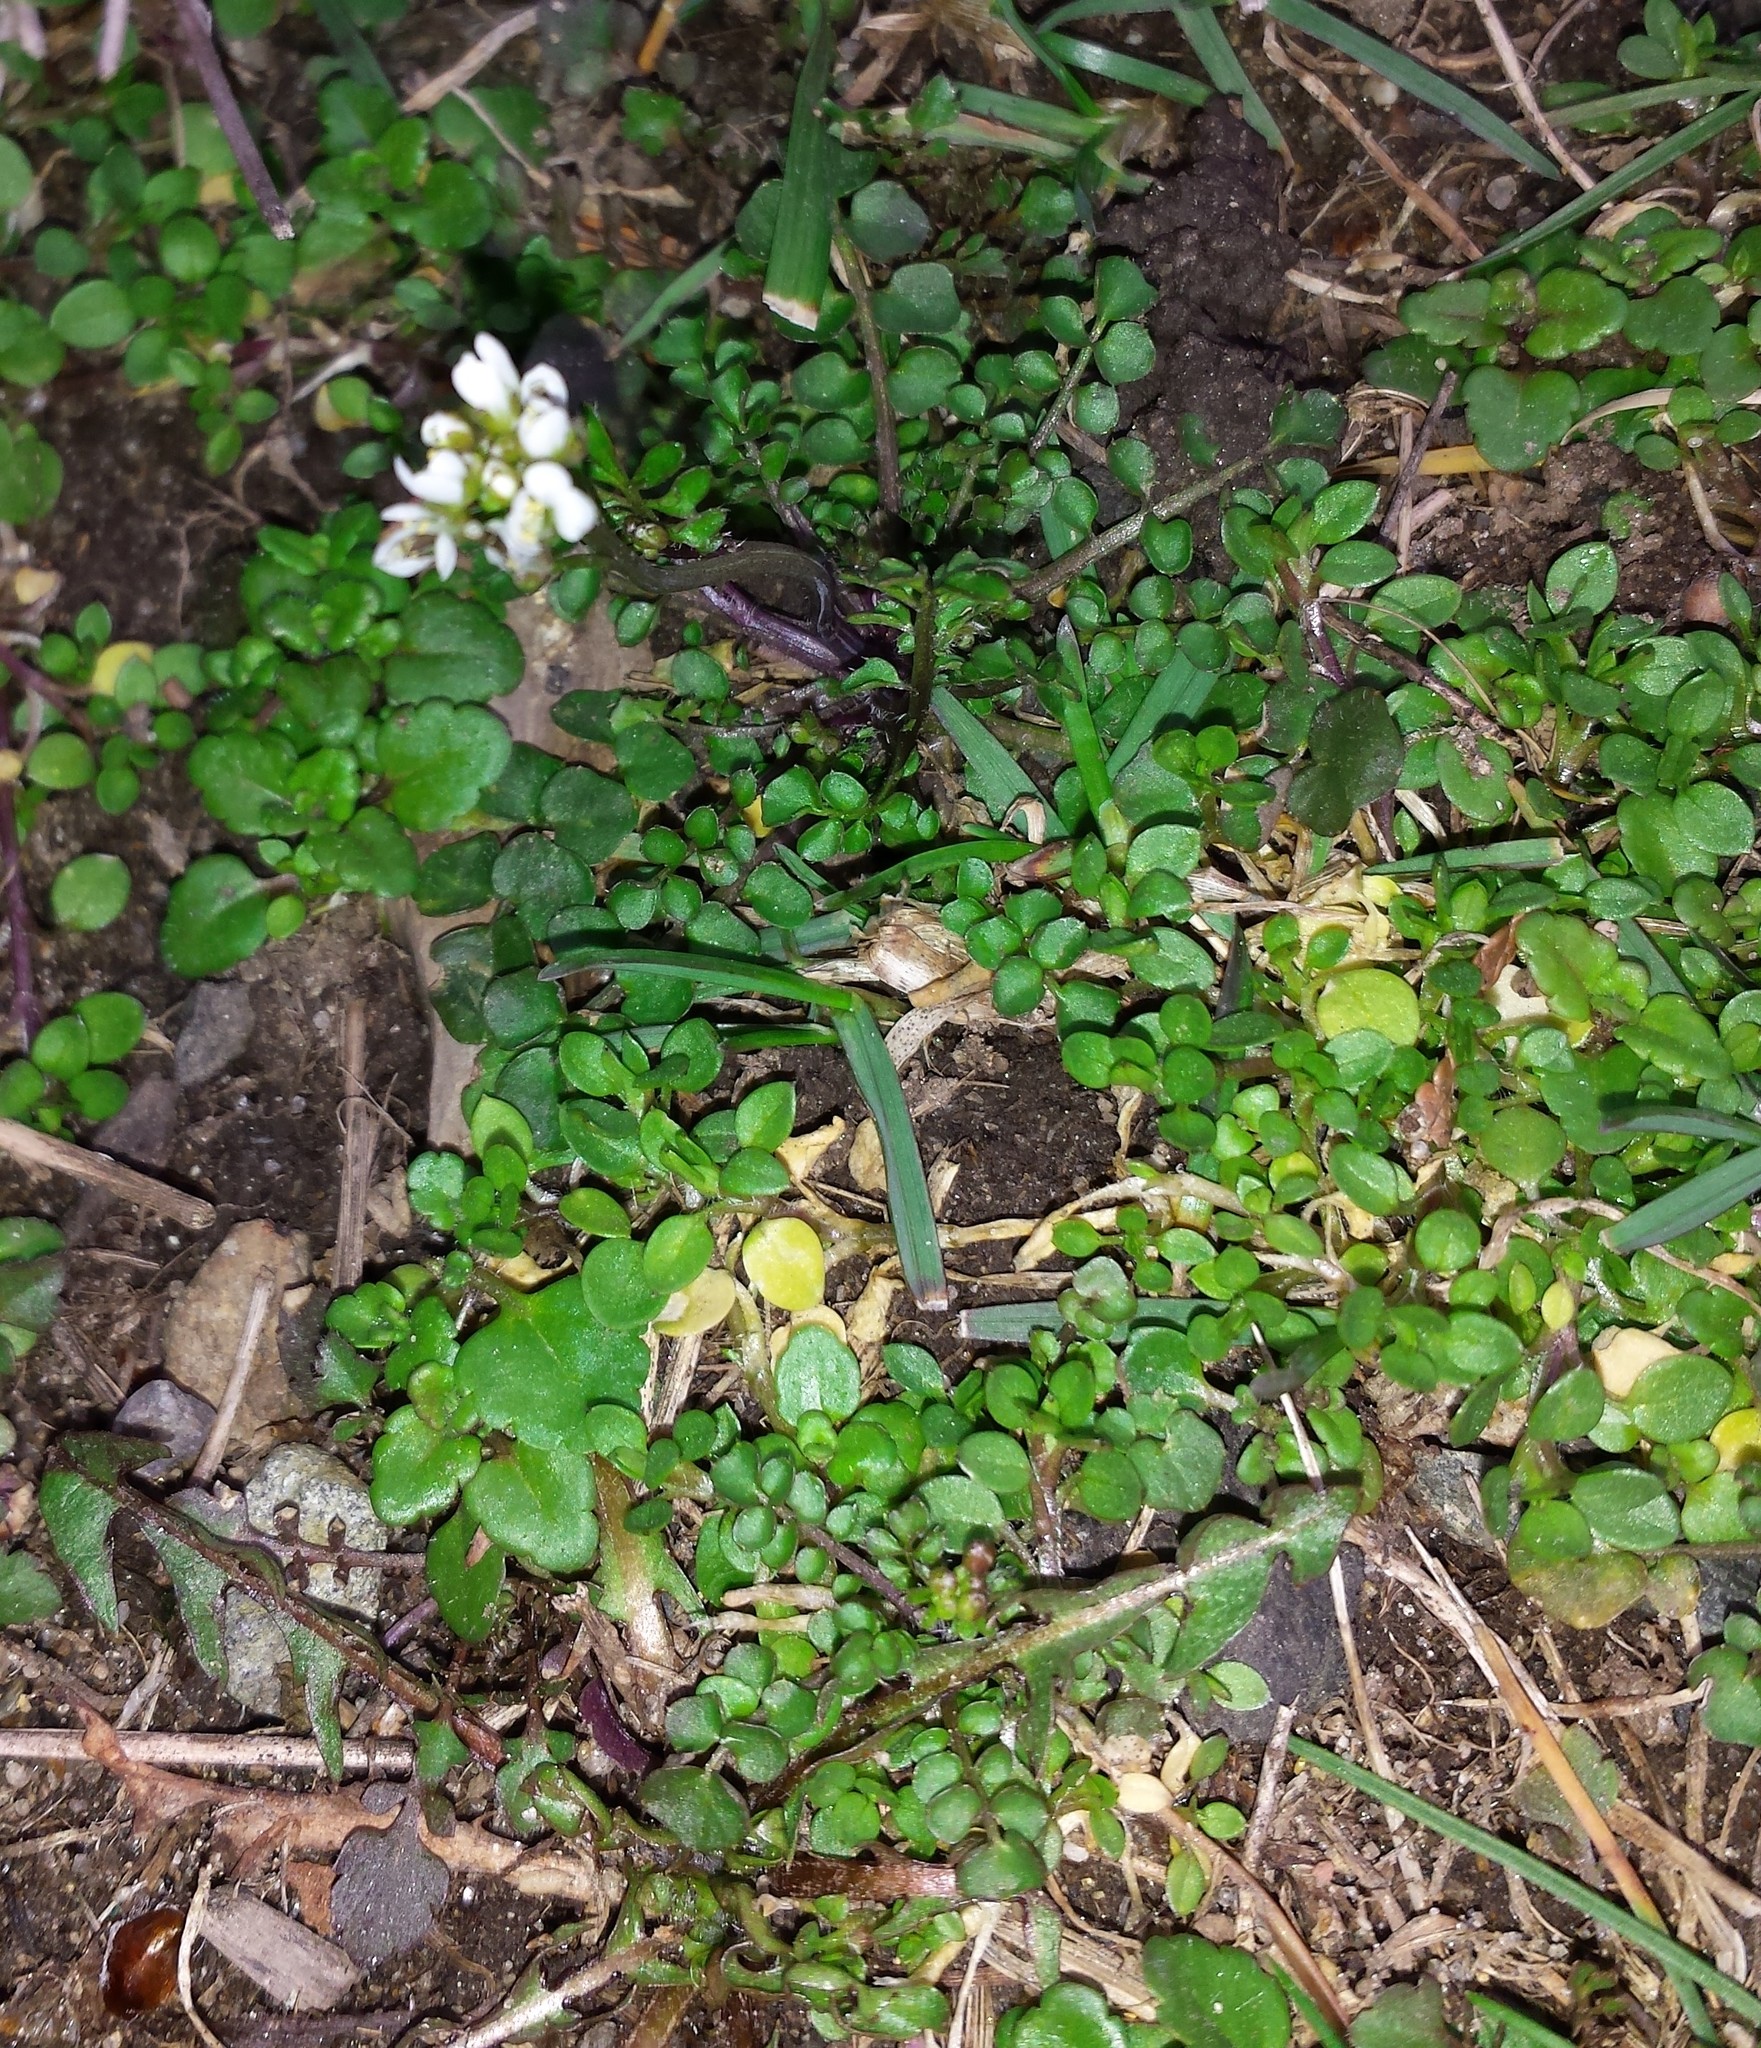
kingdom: Plantae
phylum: Tracheophyta
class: Magnoliopsida
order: Brassicales
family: Brassicaceae
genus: Cardamine
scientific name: Cardamine hirsuta
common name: Hairy bittercress
